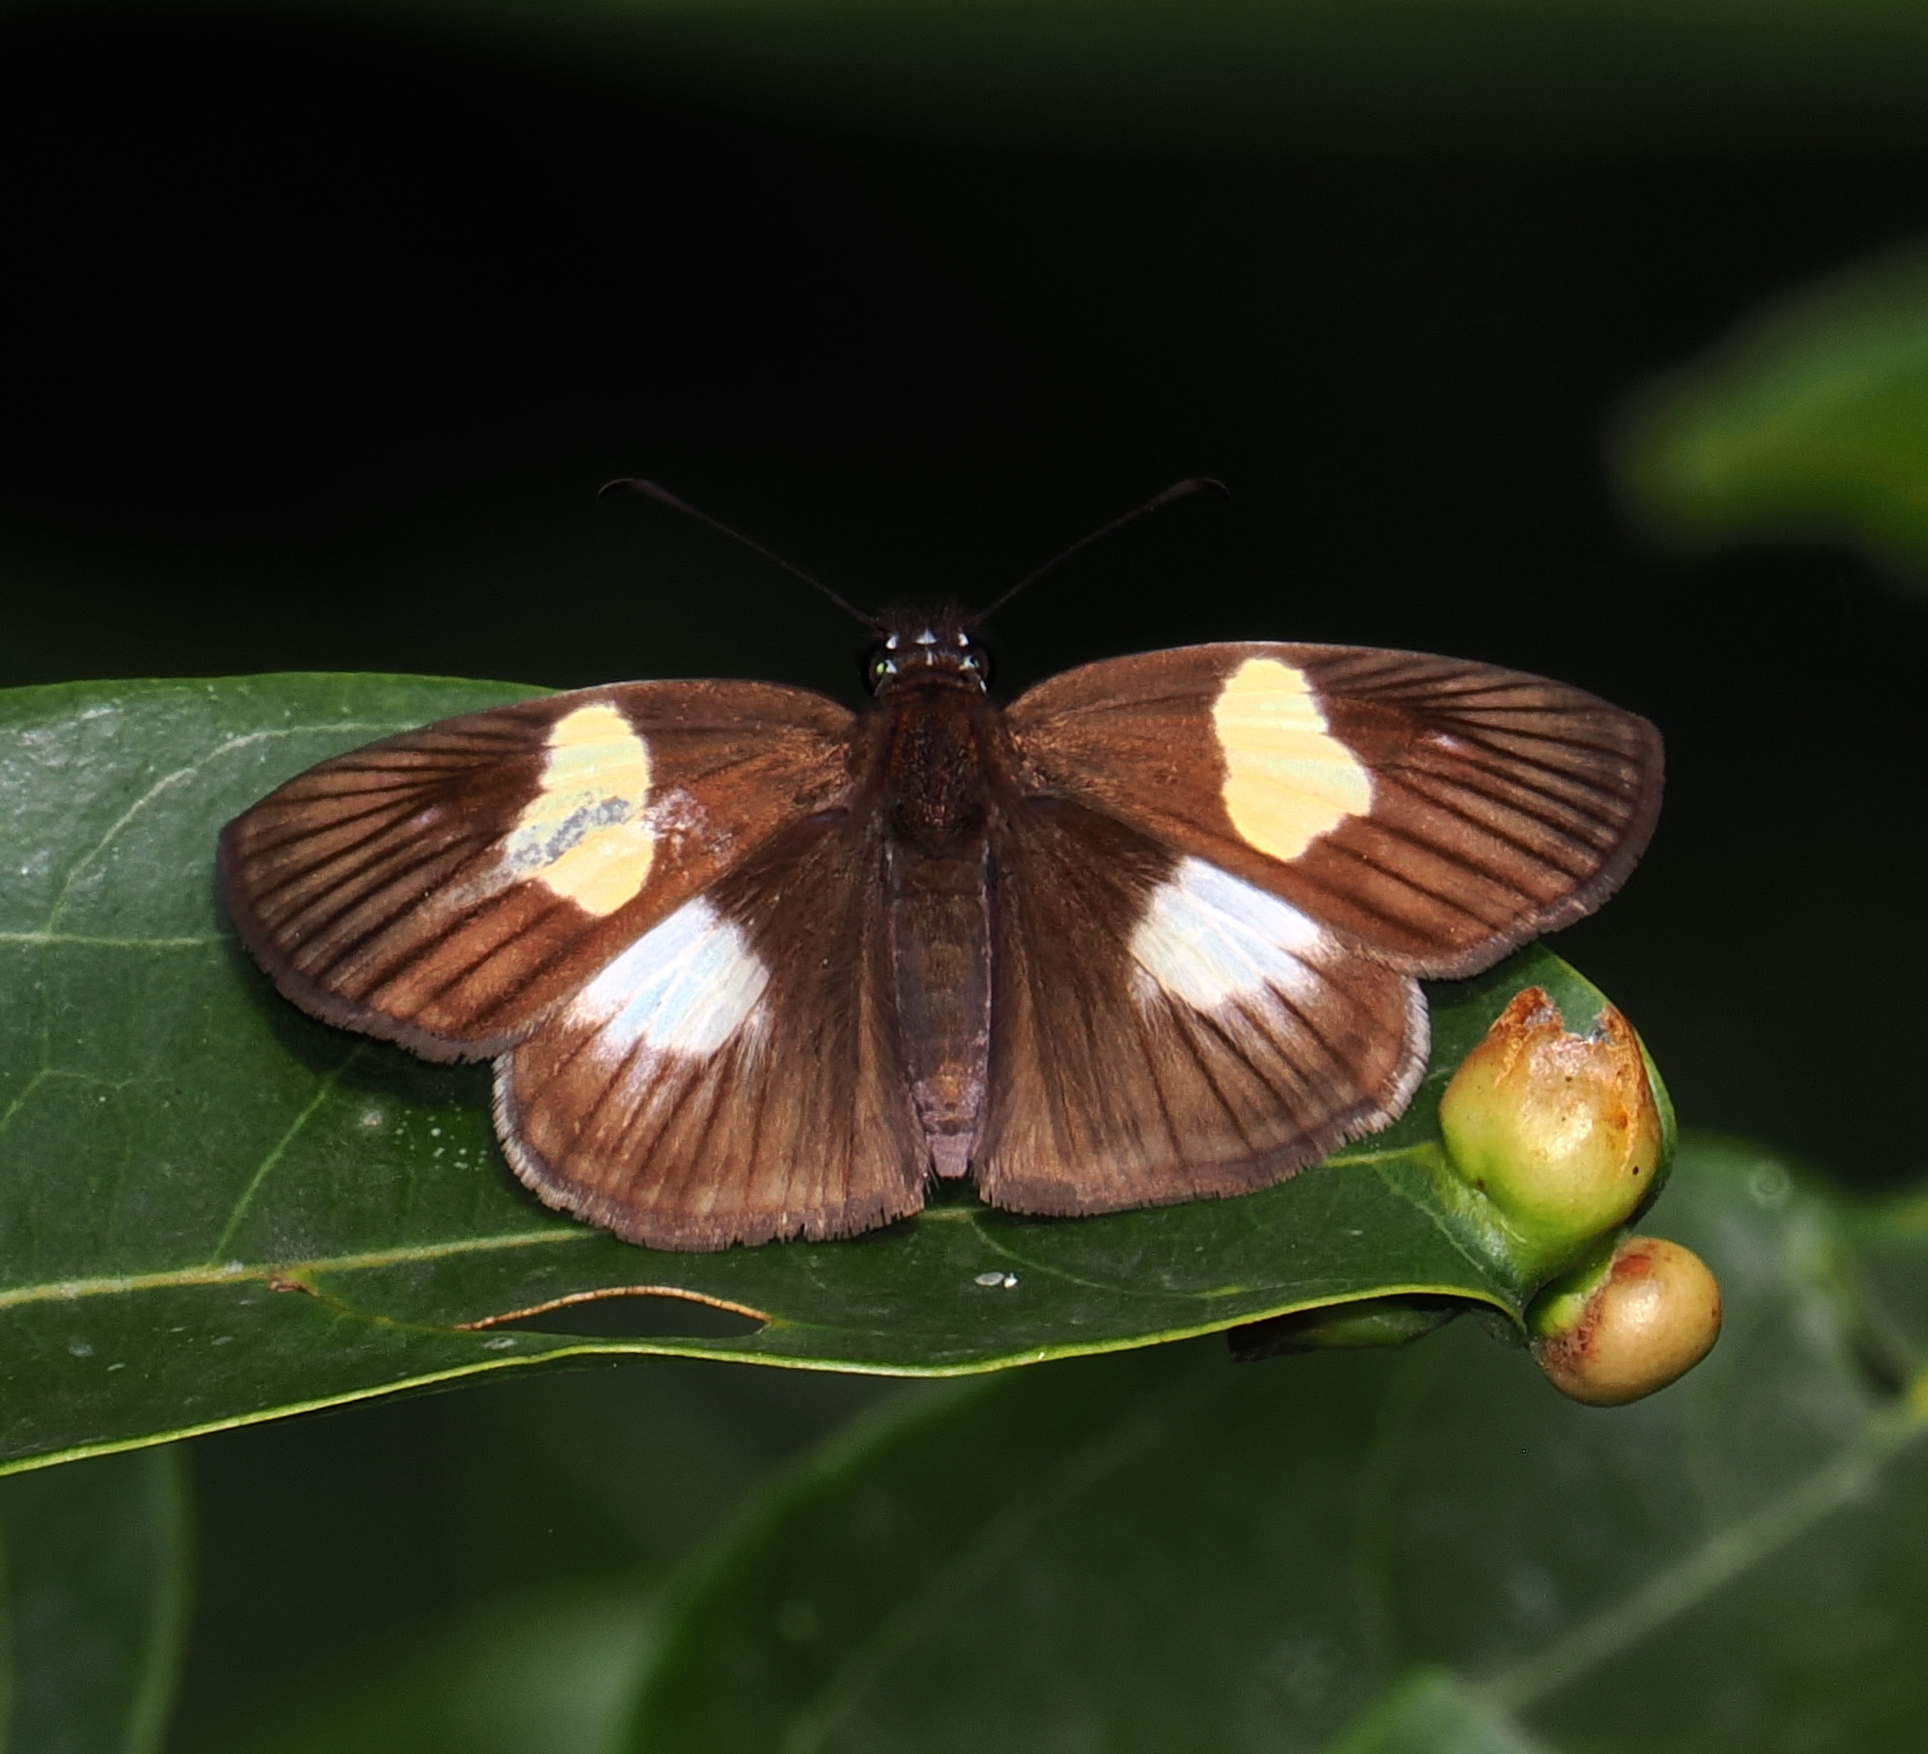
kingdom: Animalia
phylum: Arthropoda
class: Insecta
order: Lepidoptera
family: Hesperiidae
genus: Potamanaxas
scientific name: Potamanaxas hirta
